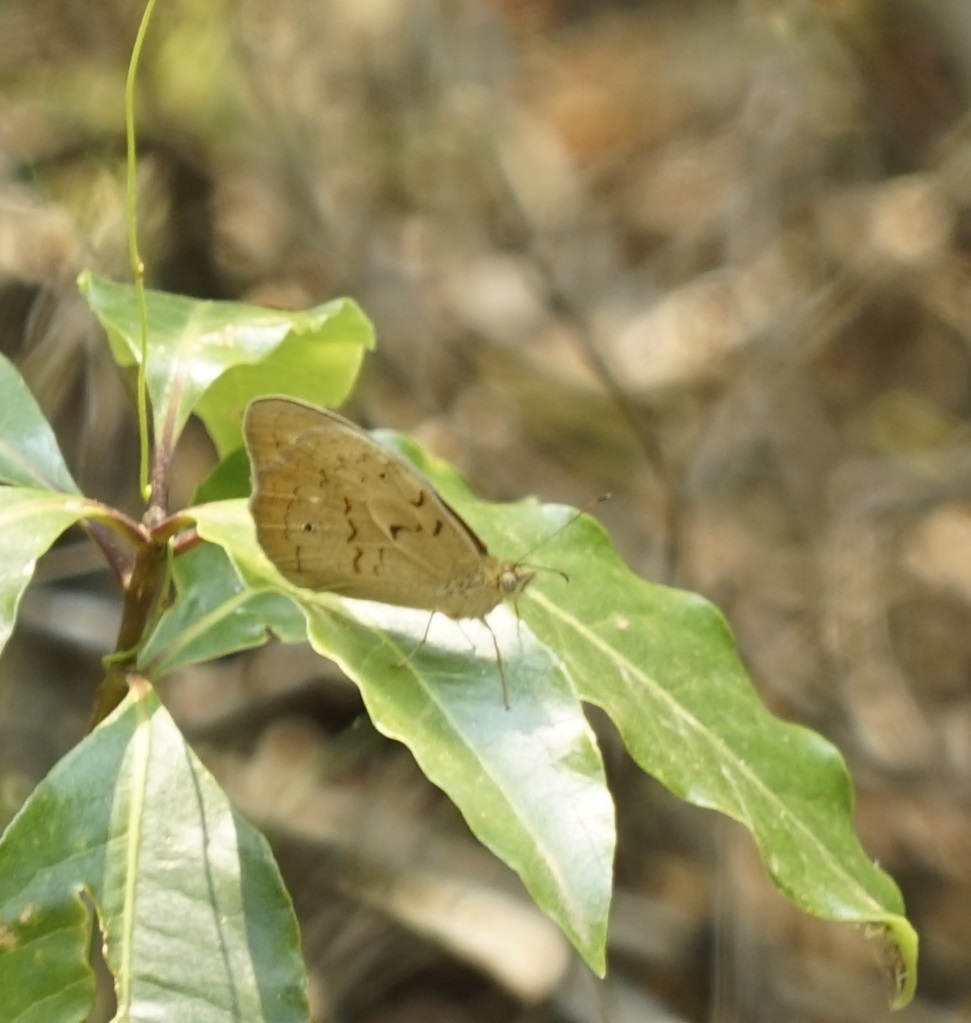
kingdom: Animalia
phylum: Arthropoda
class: Insecta
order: Lepidoptera
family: Nymphalidae
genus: Heteronympha
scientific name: Heteronympha merope
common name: Common brown
